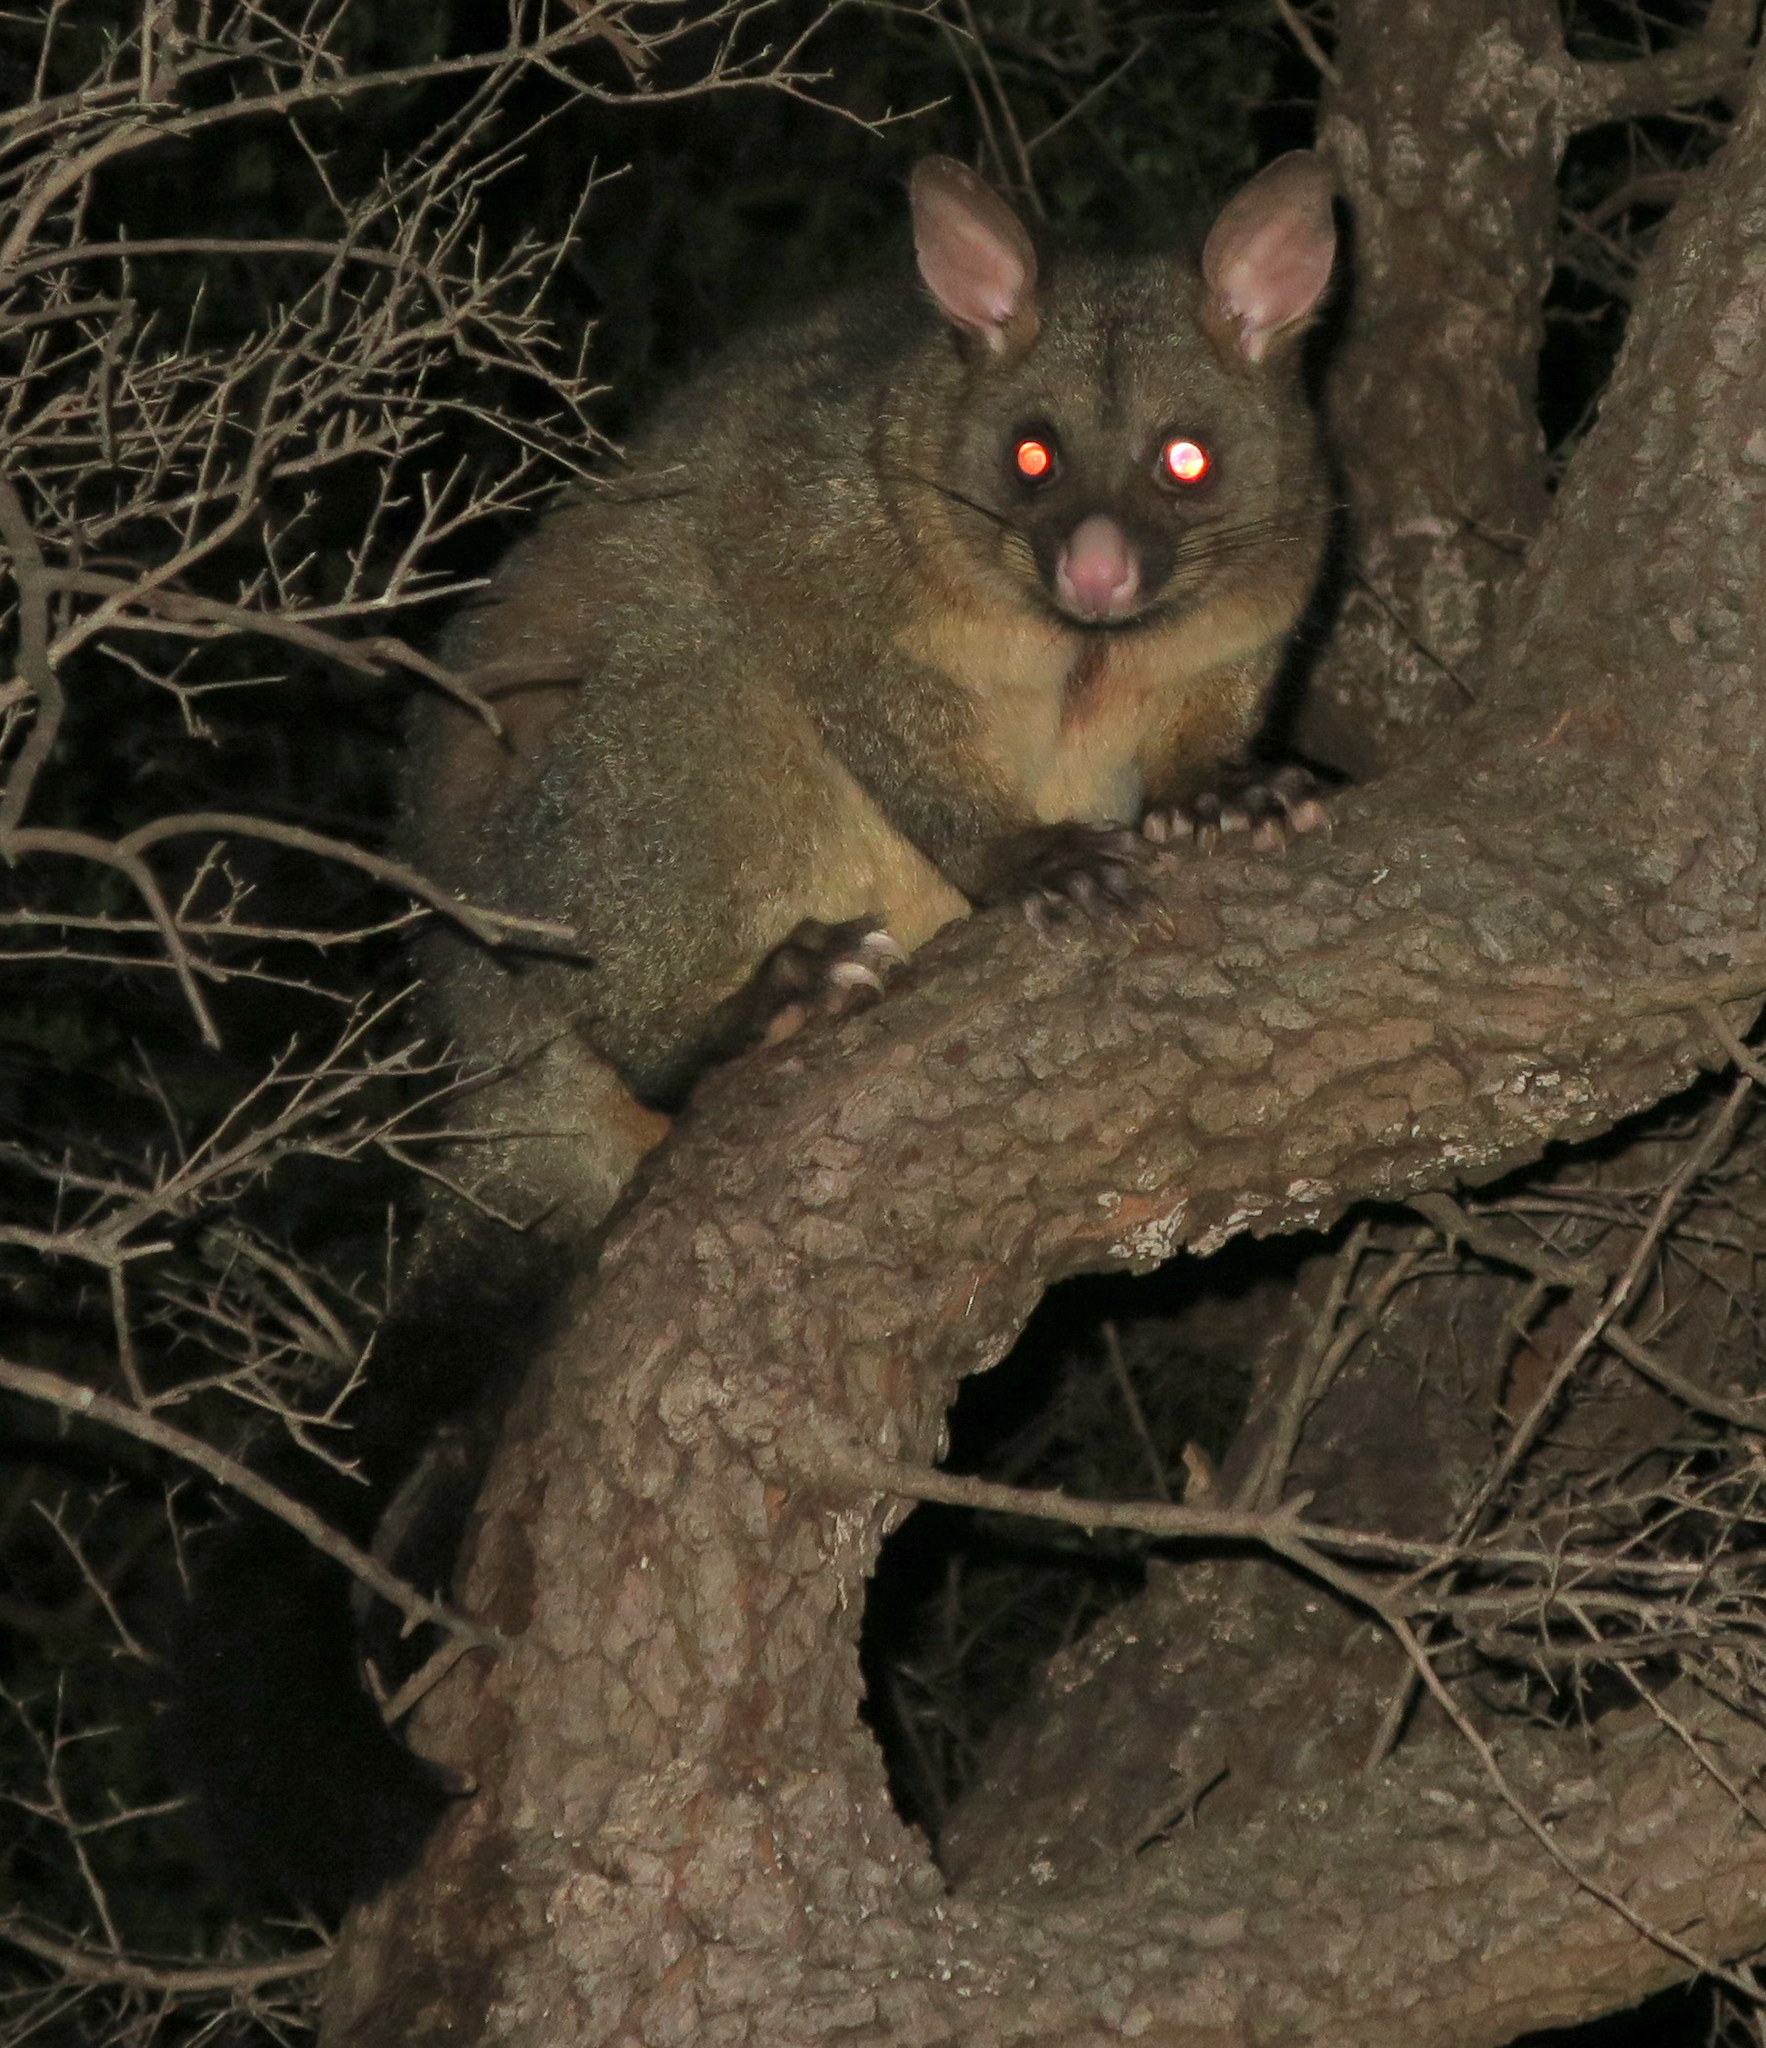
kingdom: Animalia
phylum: Chordata
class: Mammalia
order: Diprotodontia
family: Phalangeridae
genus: Trichosurus
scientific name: Trichosurus vulpecula
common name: Common brushtail
